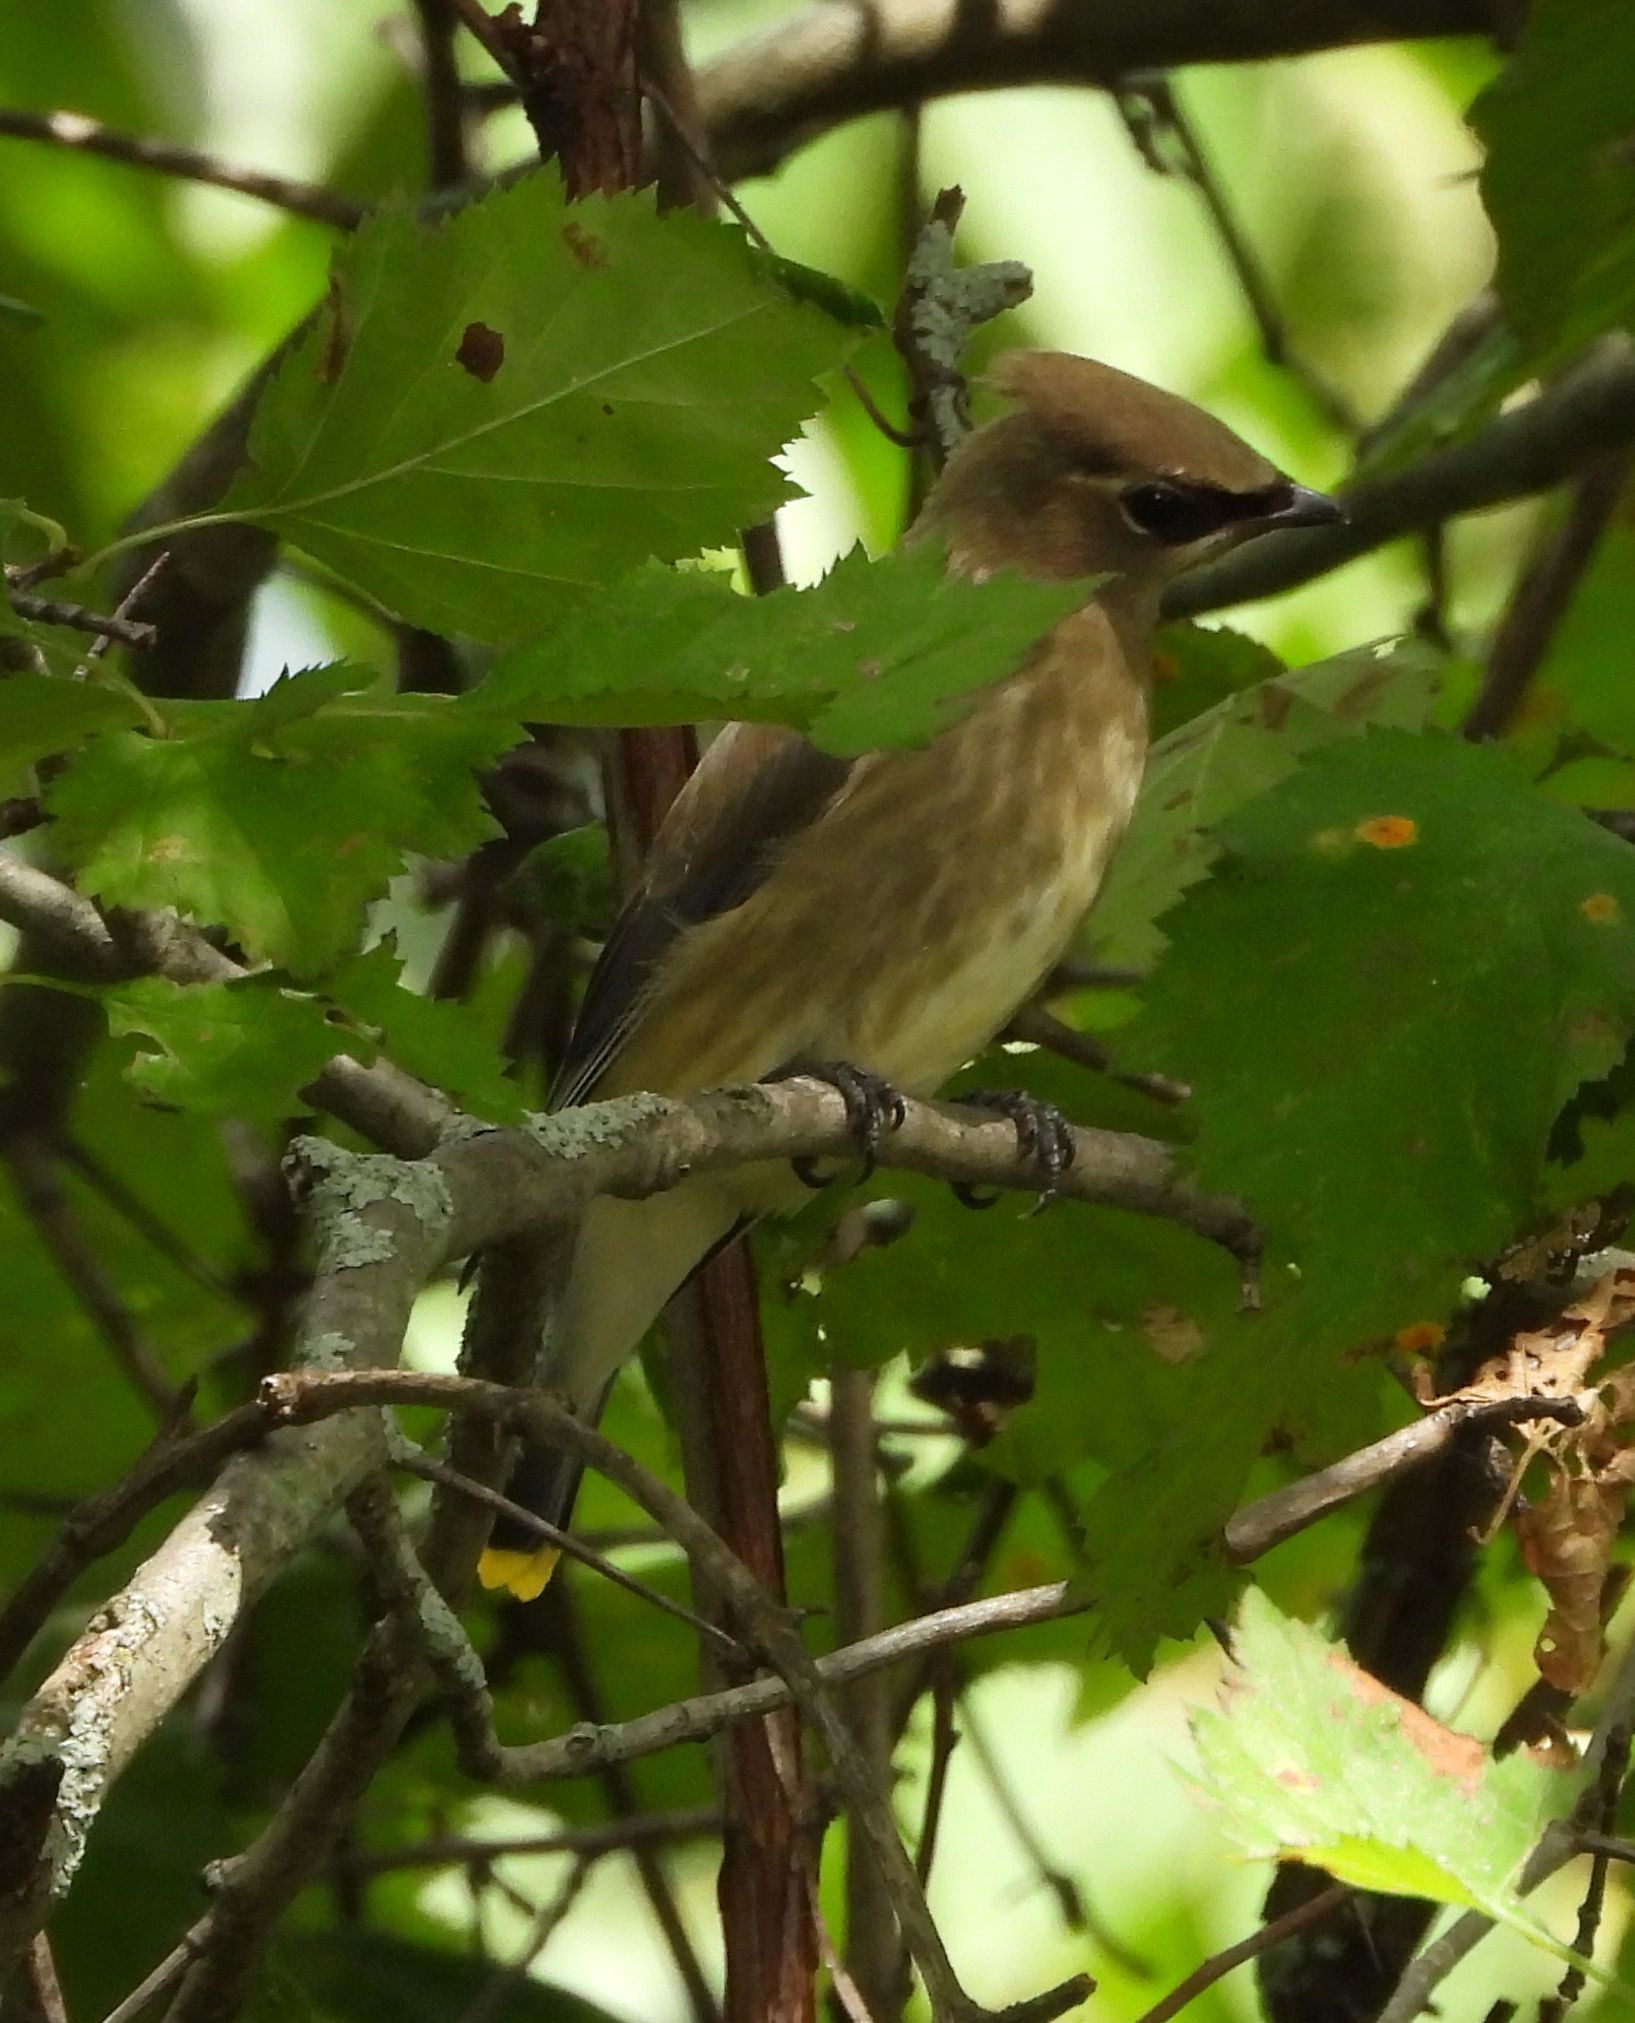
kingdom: Animalia
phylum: Chordata
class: Aves
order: Passeriformes
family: Bombycillidae
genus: Bombycilla
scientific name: Bombycilla cedrorum
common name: Cedar waxwing
